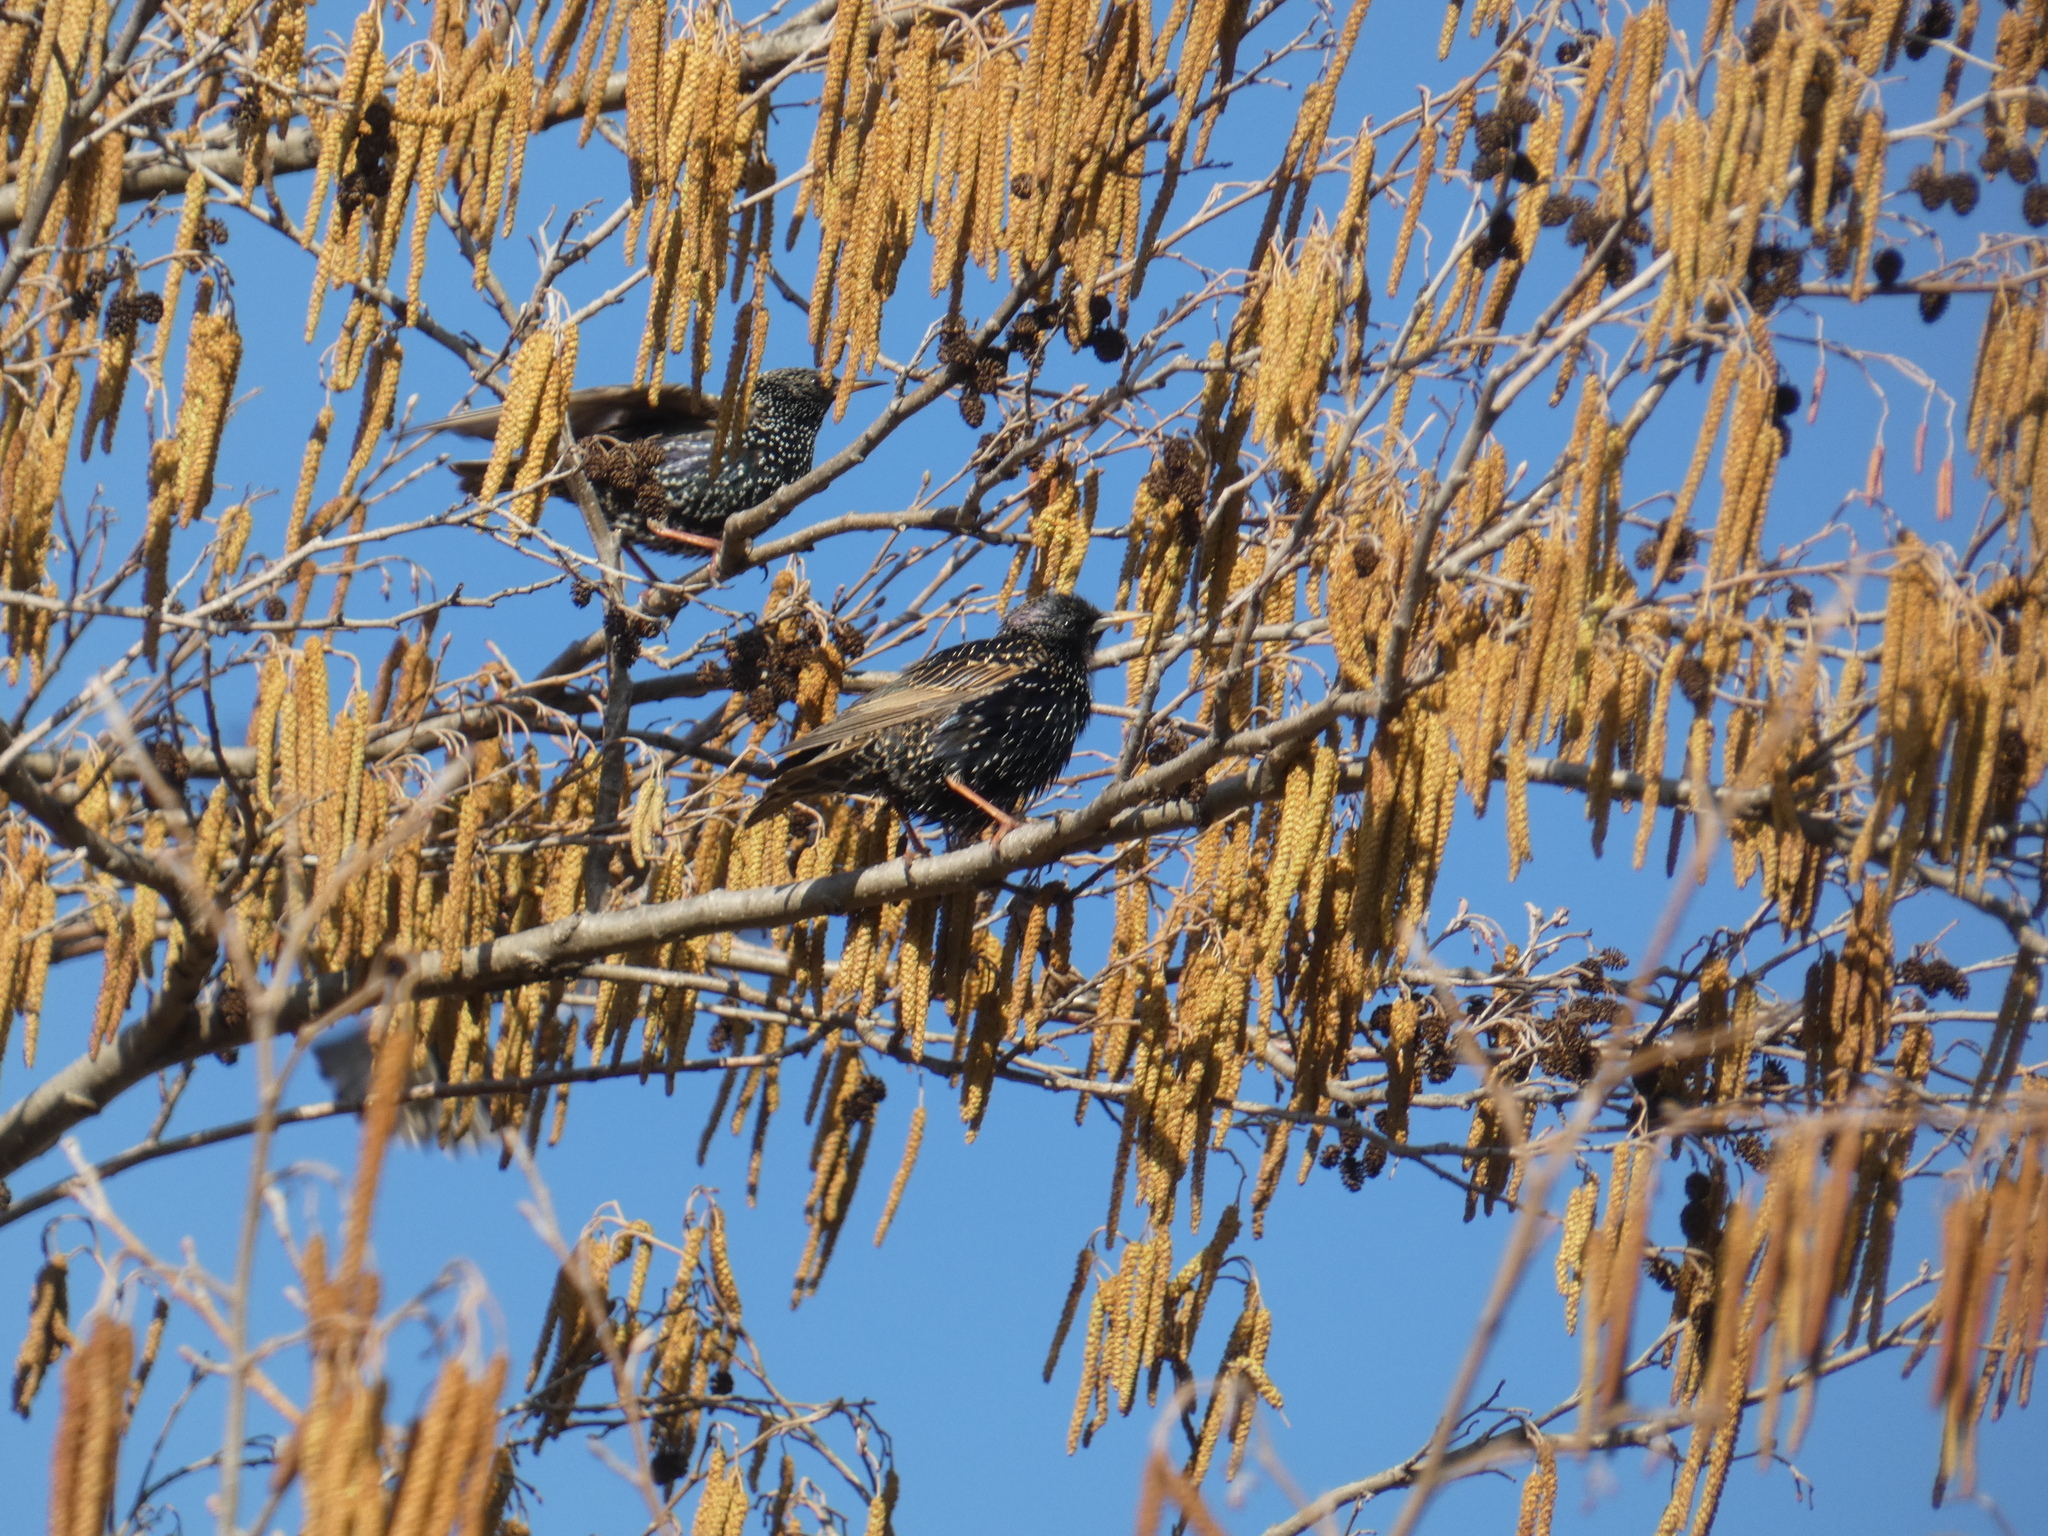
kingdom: Animalia
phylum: Chordata
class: Aves
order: Passeriformes
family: Sturnidae
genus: Sturnus
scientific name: Sturnus vulgaris
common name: Common starling
